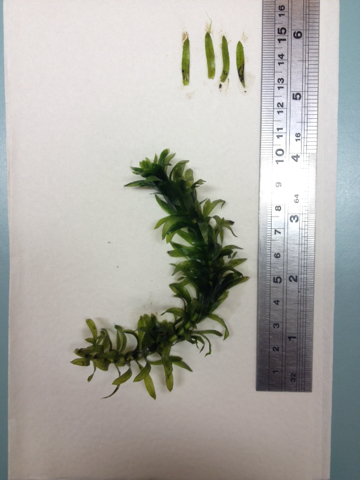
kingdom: Plantae
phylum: Tracheophyta
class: Liliopsida
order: Alismatales
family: Hydrocharitaceae
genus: Elodea
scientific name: Elodea densa
